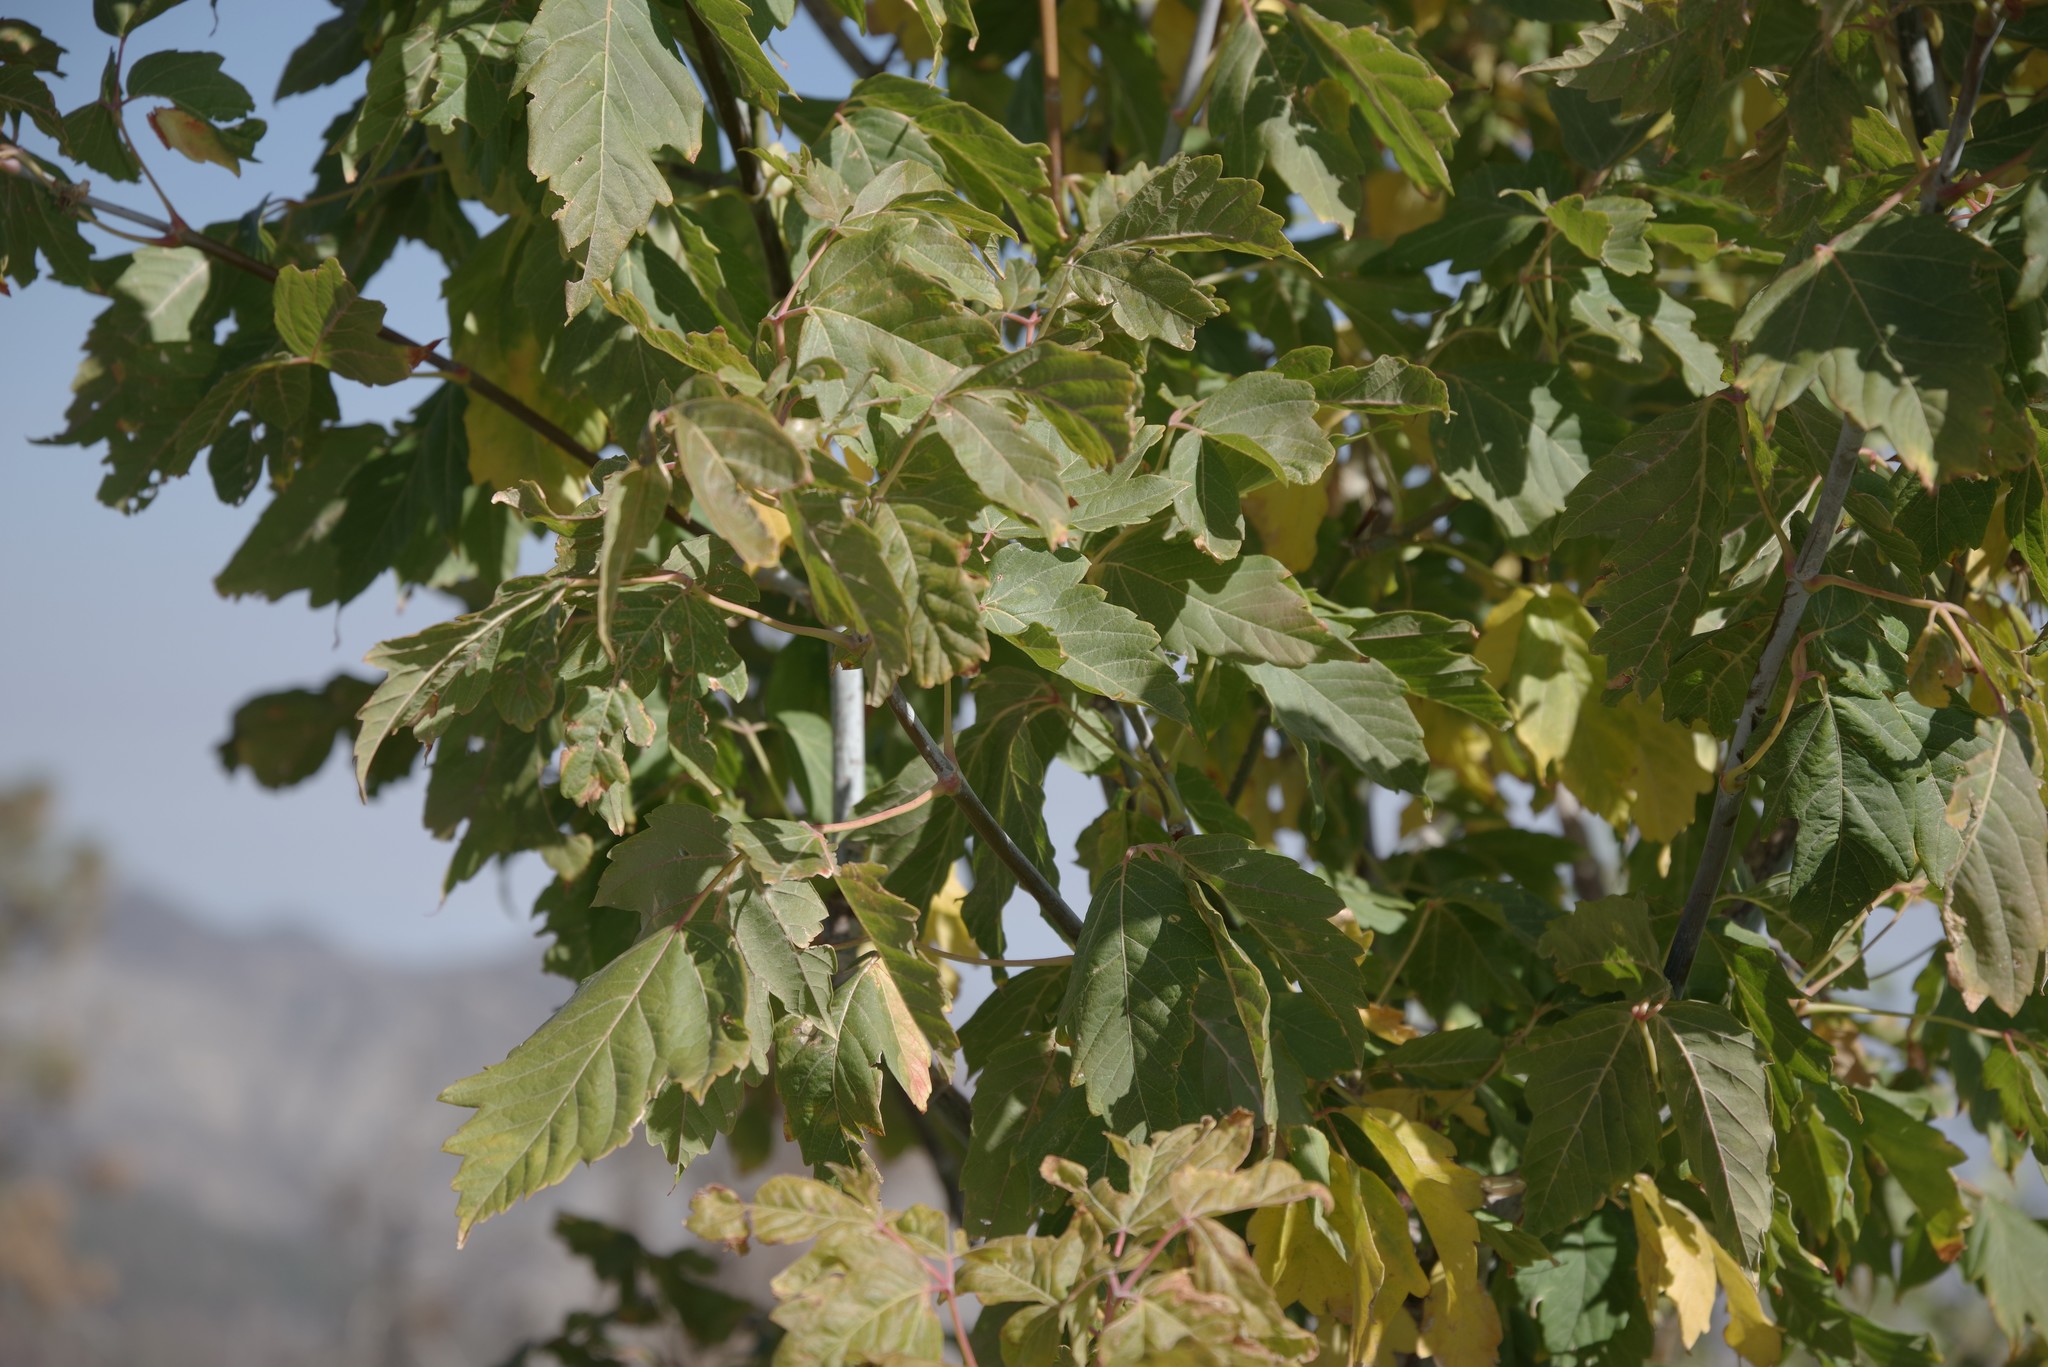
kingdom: Plantae
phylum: Tracheophyta
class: Magnoliopsida
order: Sapindales
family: Sapindaceae
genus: Acer
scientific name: Acer negundo
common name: Ashleaf maple
